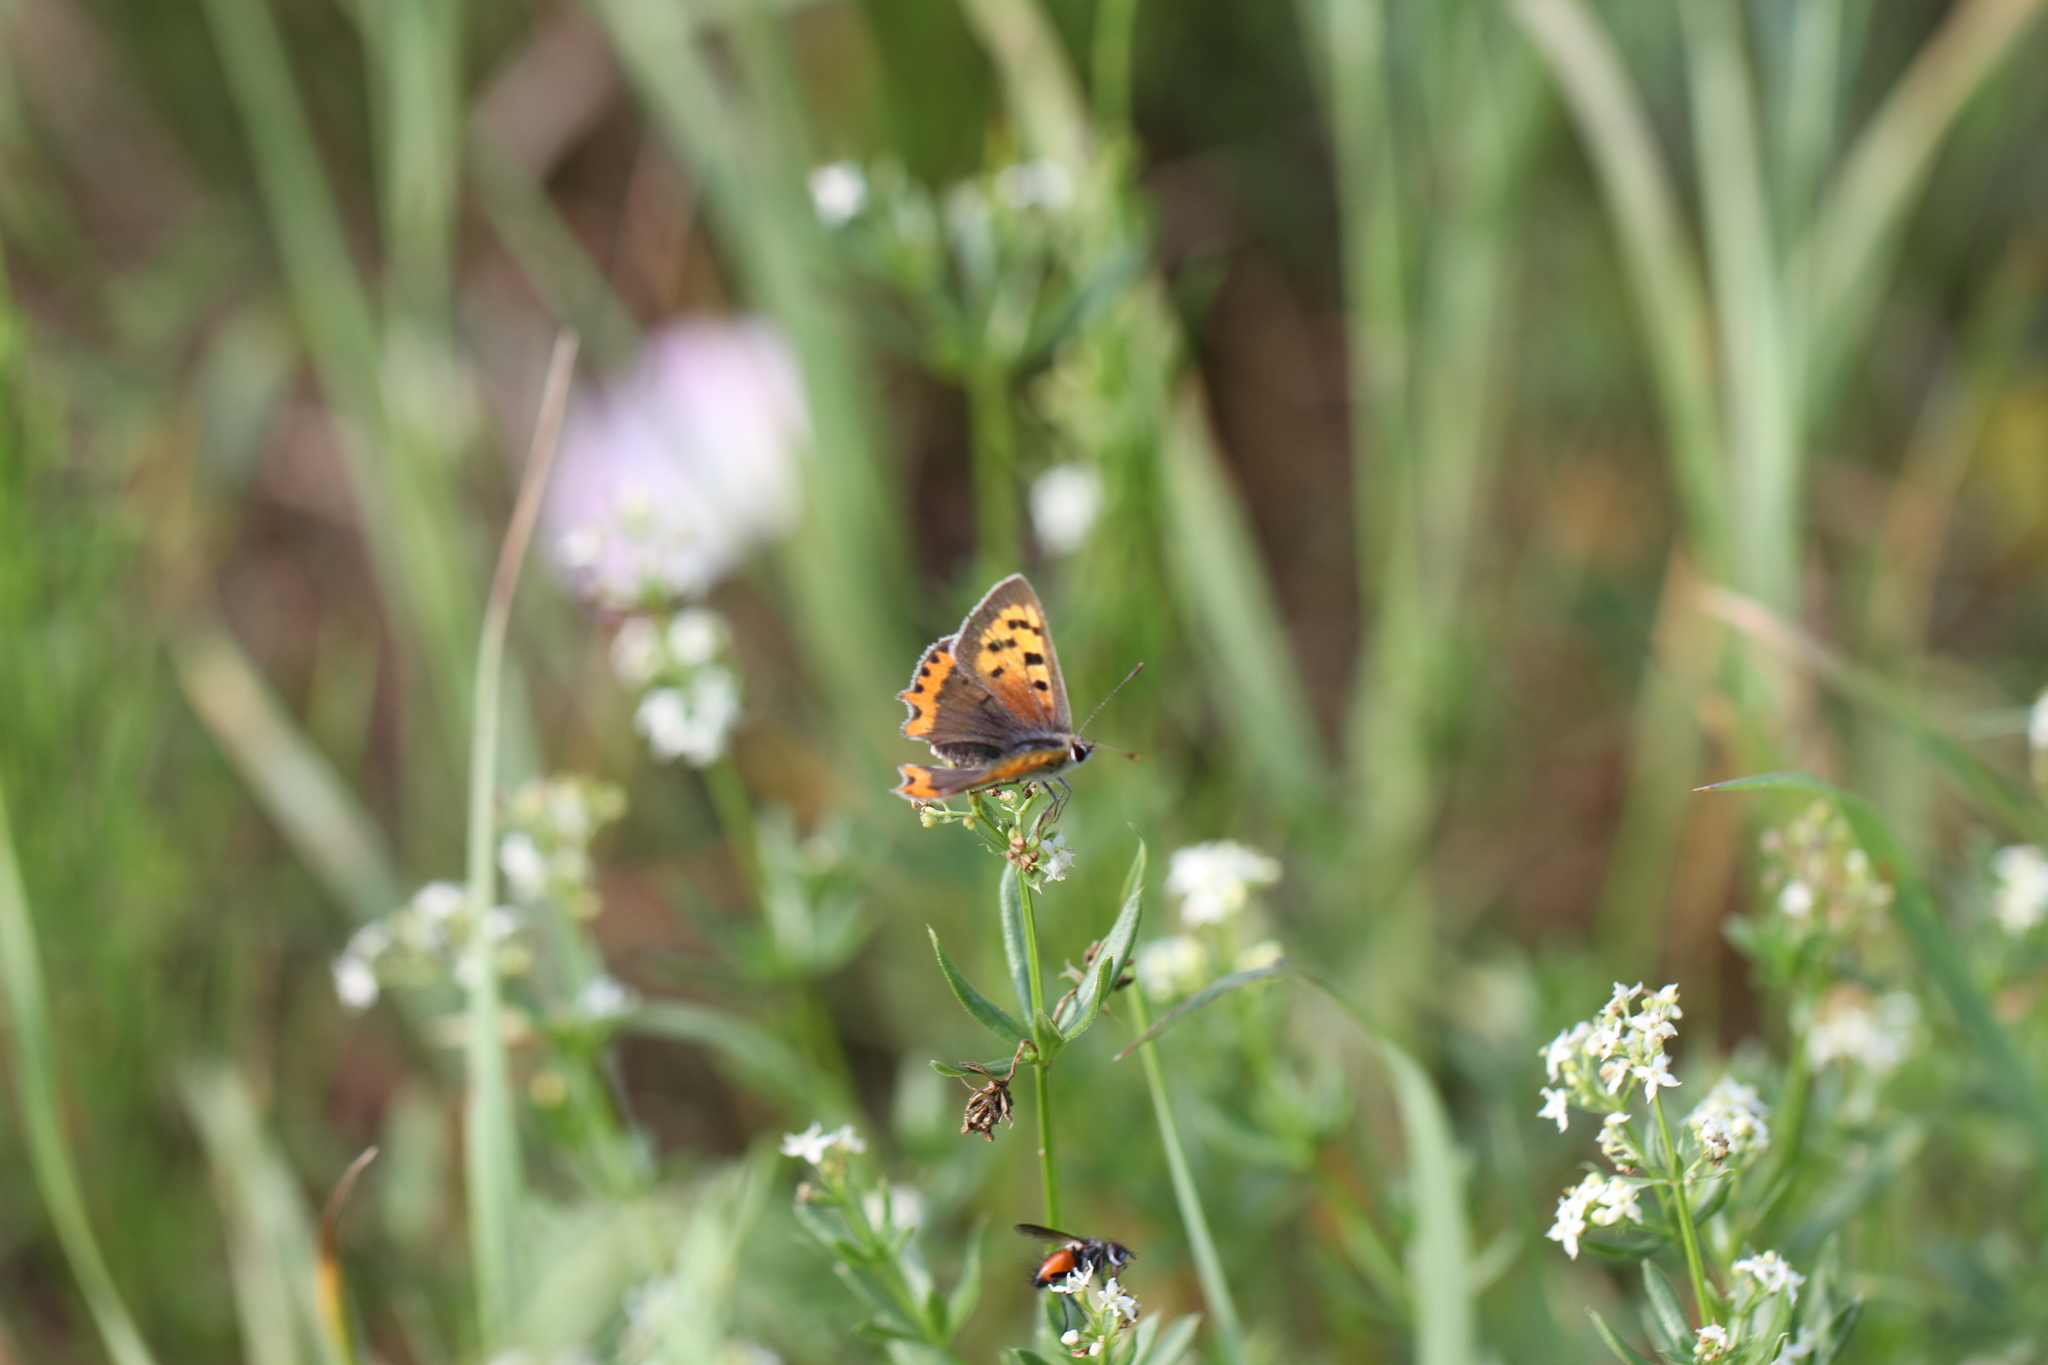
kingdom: Animalia
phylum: Arthropoda
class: Insecta
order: Lepidoptera
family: Lycaenidae
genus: Lycaena
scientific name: Lycaena phlaeas
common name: Small copper
